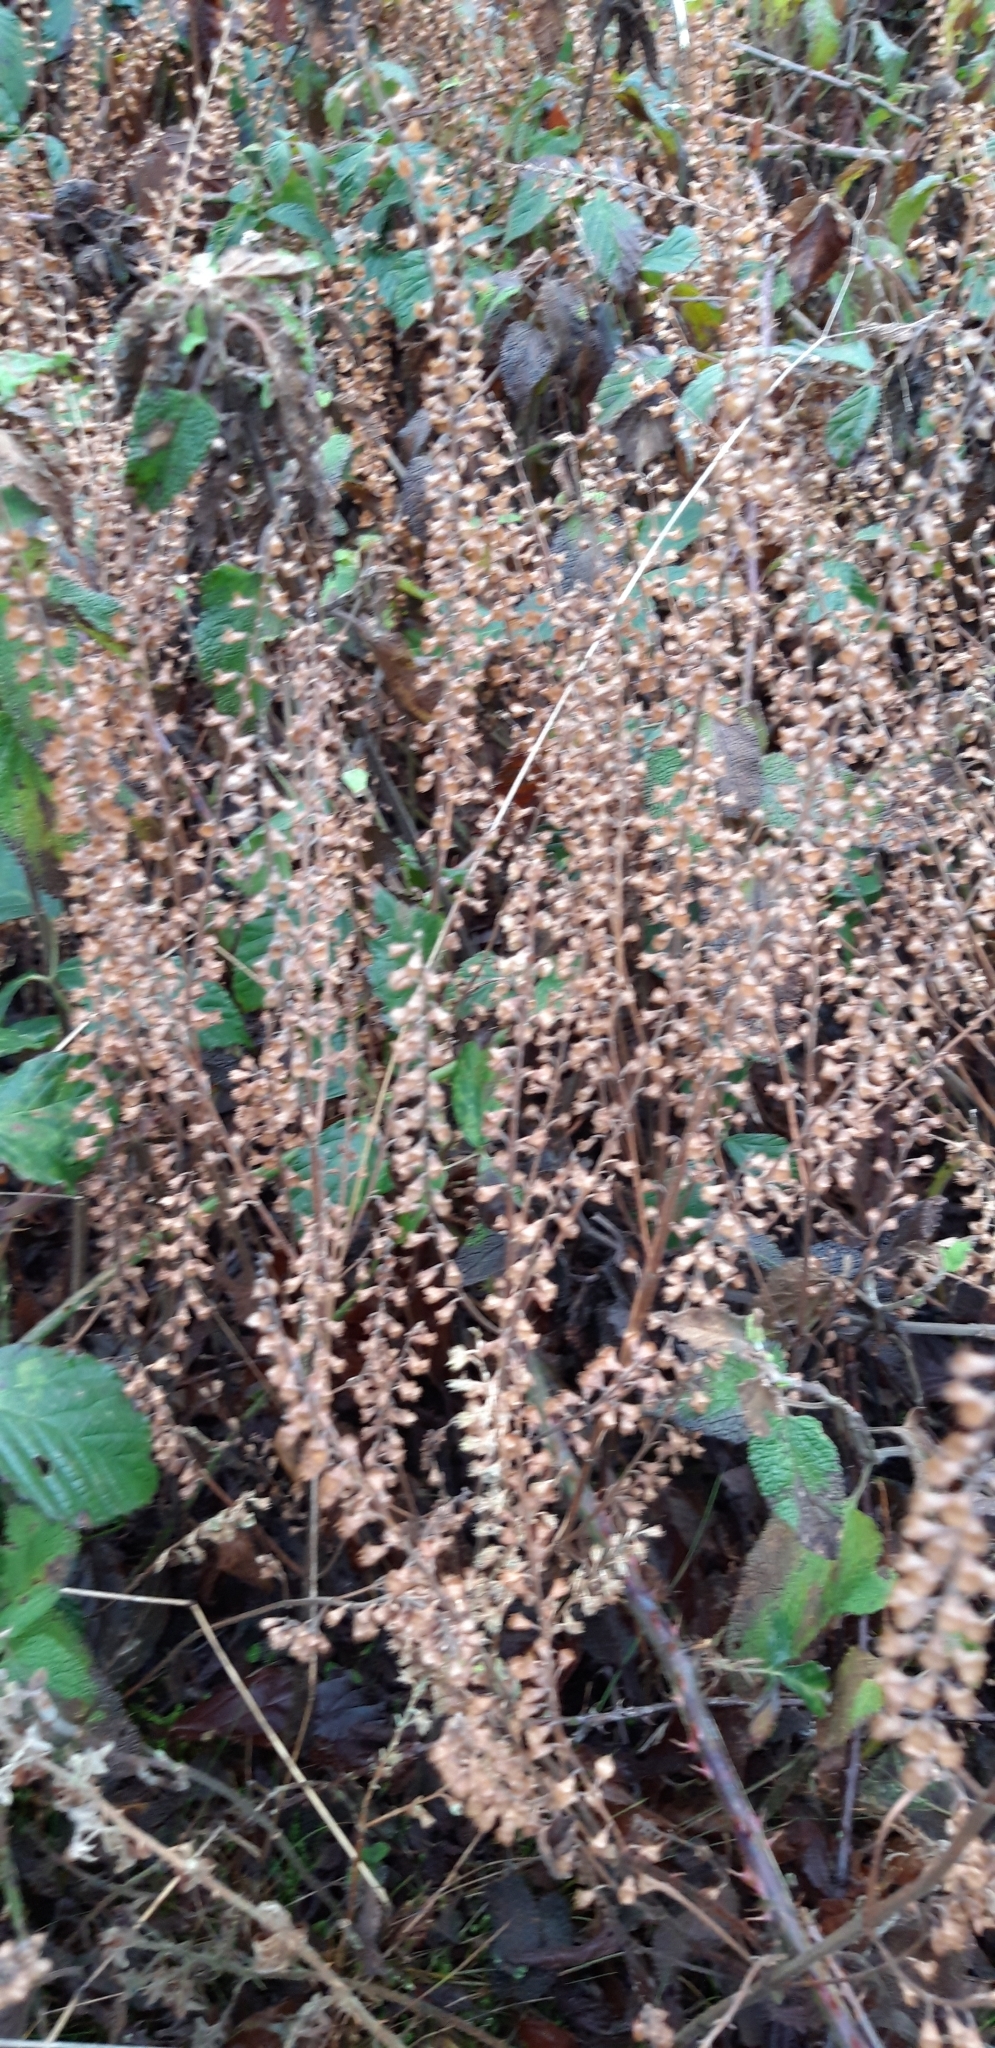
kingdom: Plantae
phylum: Tracheophyta
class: Magnoliopsida
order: Lamiales
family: Lamiaceae
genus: Teucrium
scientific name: Teucrium scorodonia
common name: Woodland germander
